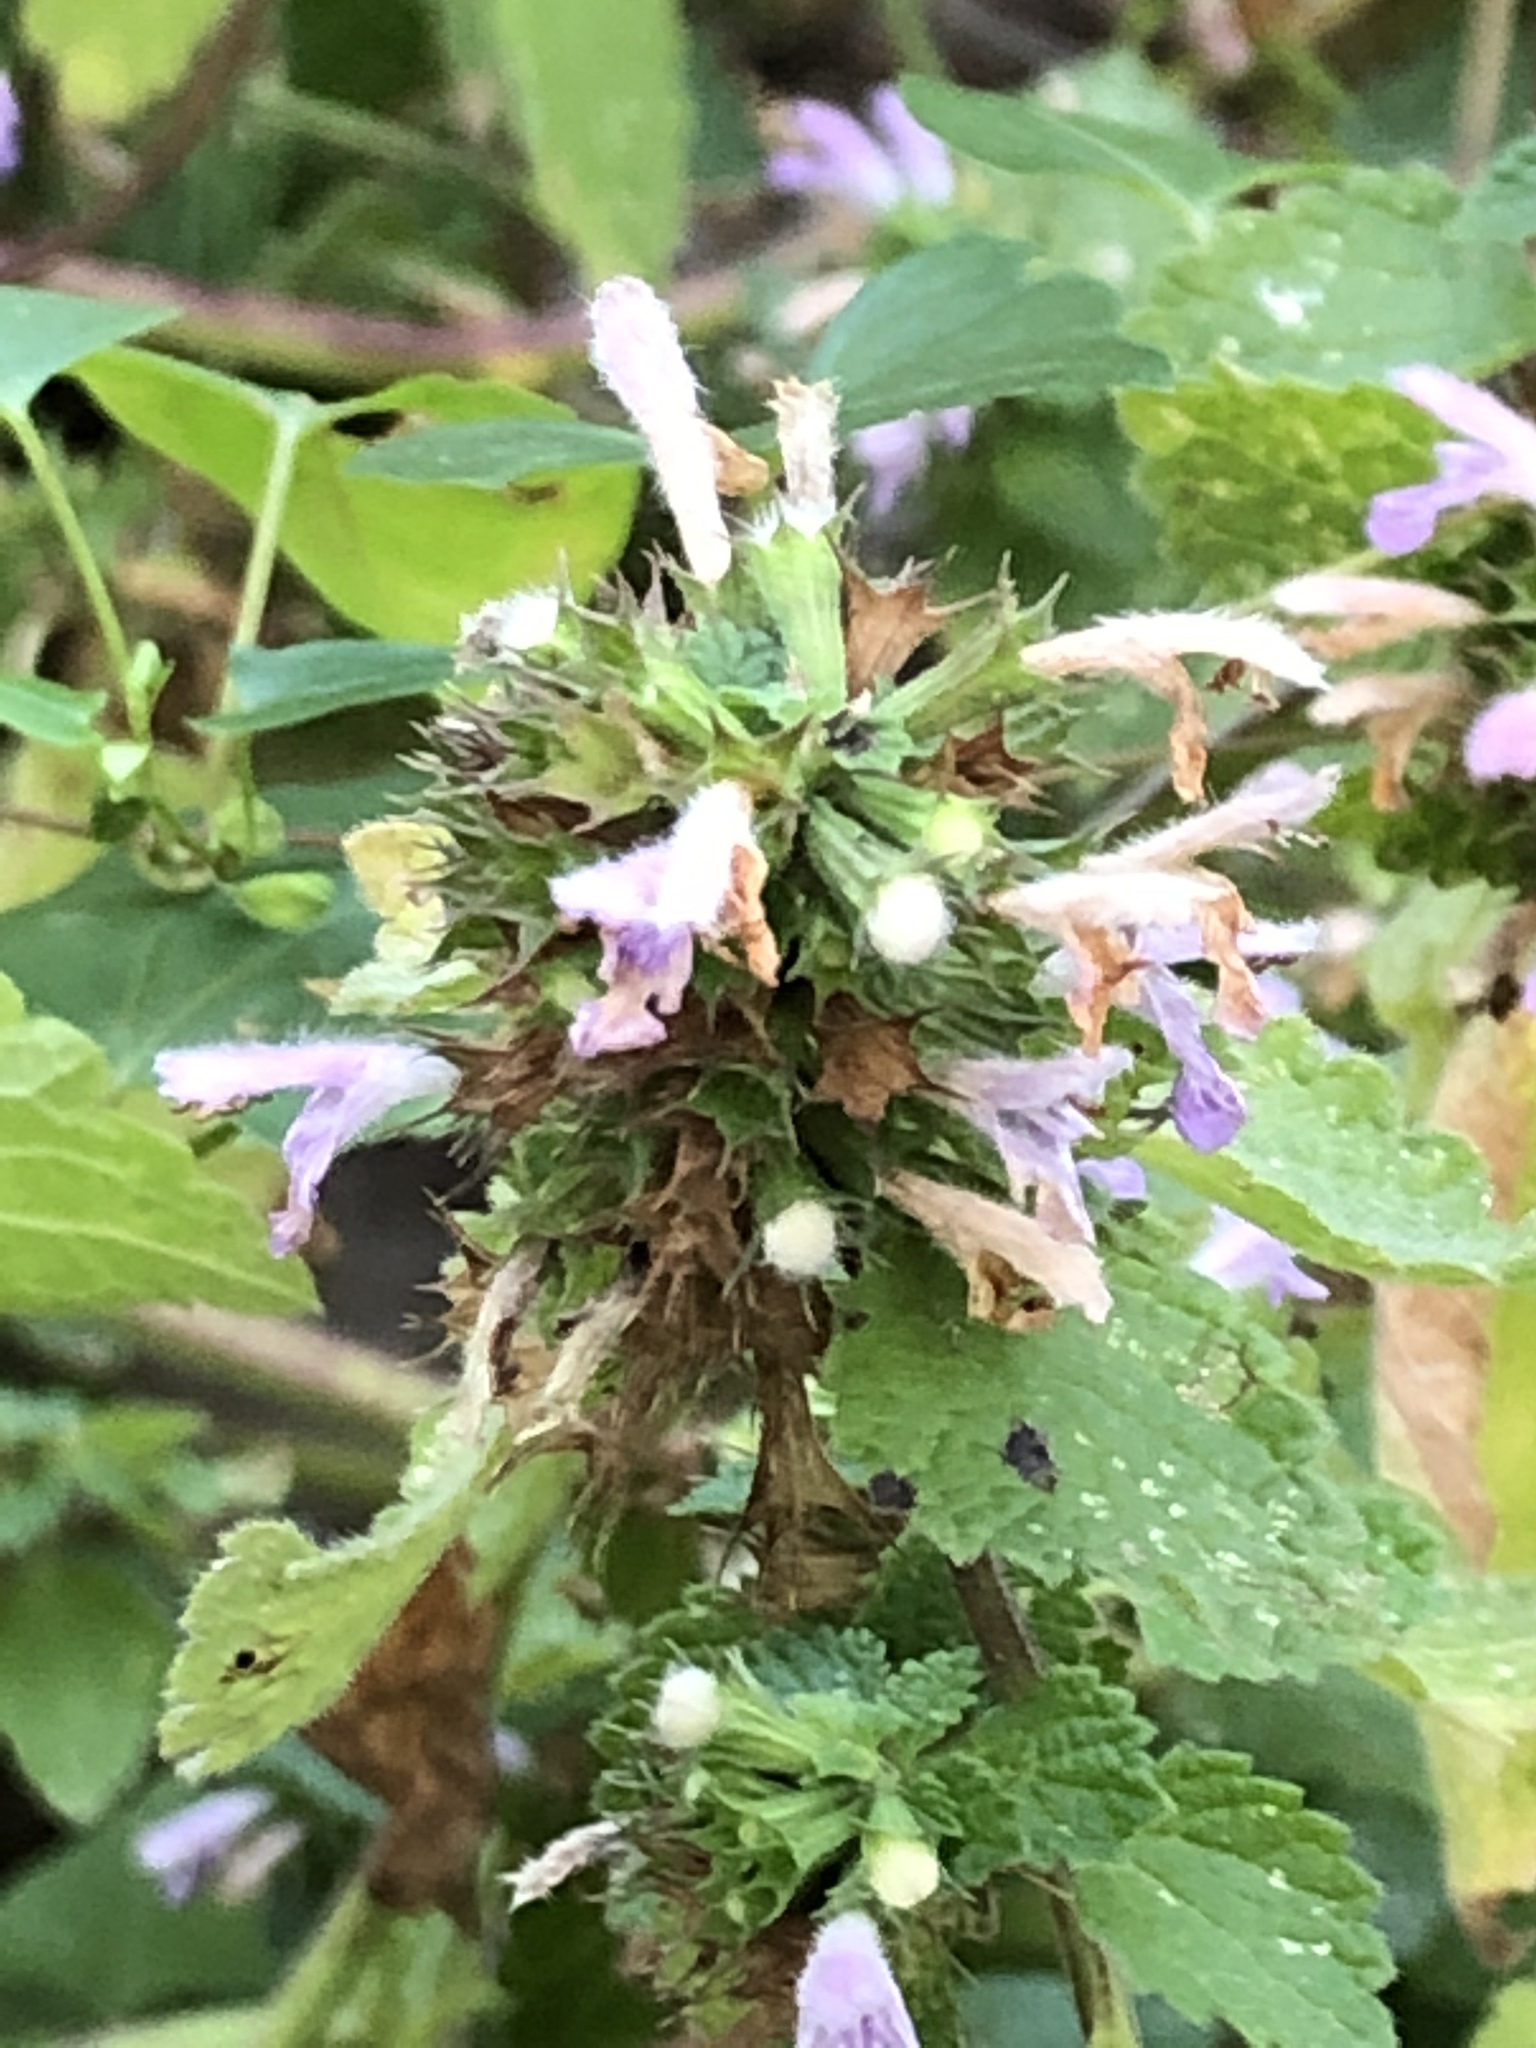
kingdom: Plantae
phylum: Tracheophyta
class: Magnoliopsida
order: Lamiales
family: Lamiaceae
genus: Ballota
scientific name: Ballota nigra
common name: Black horehound
